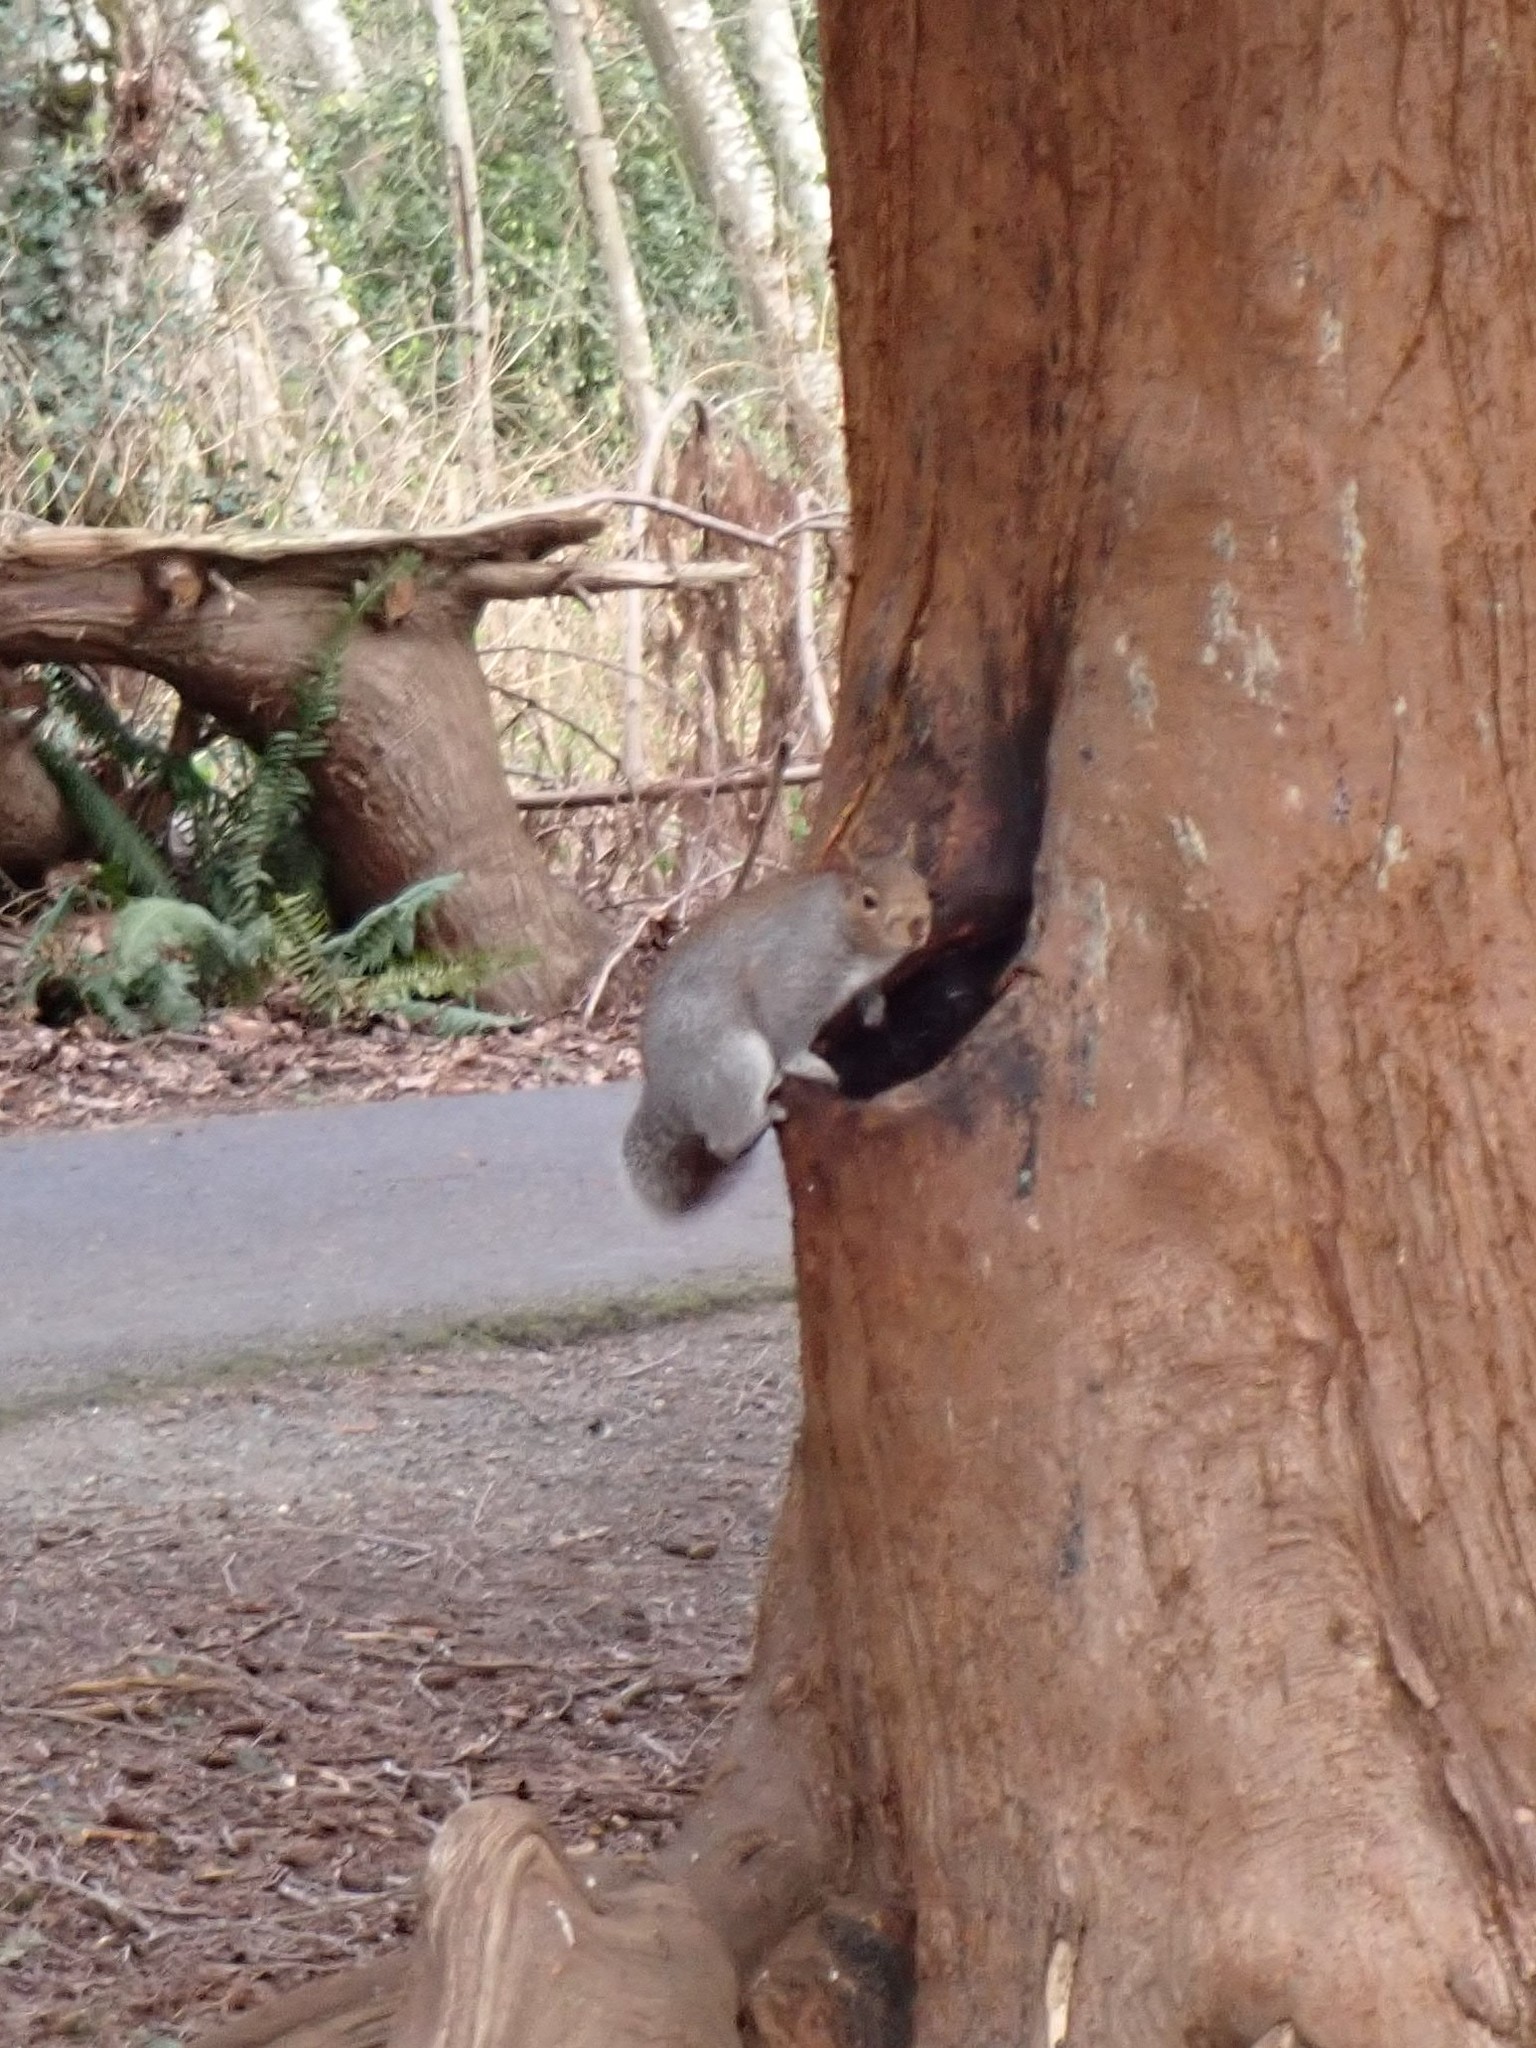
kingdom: Animalia
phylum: Chordata
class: Mammalia
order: Rodentia
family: Sciuridae
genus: Sciurus
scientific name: Sciurus carolinensis
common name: Eastern gray squirrel
